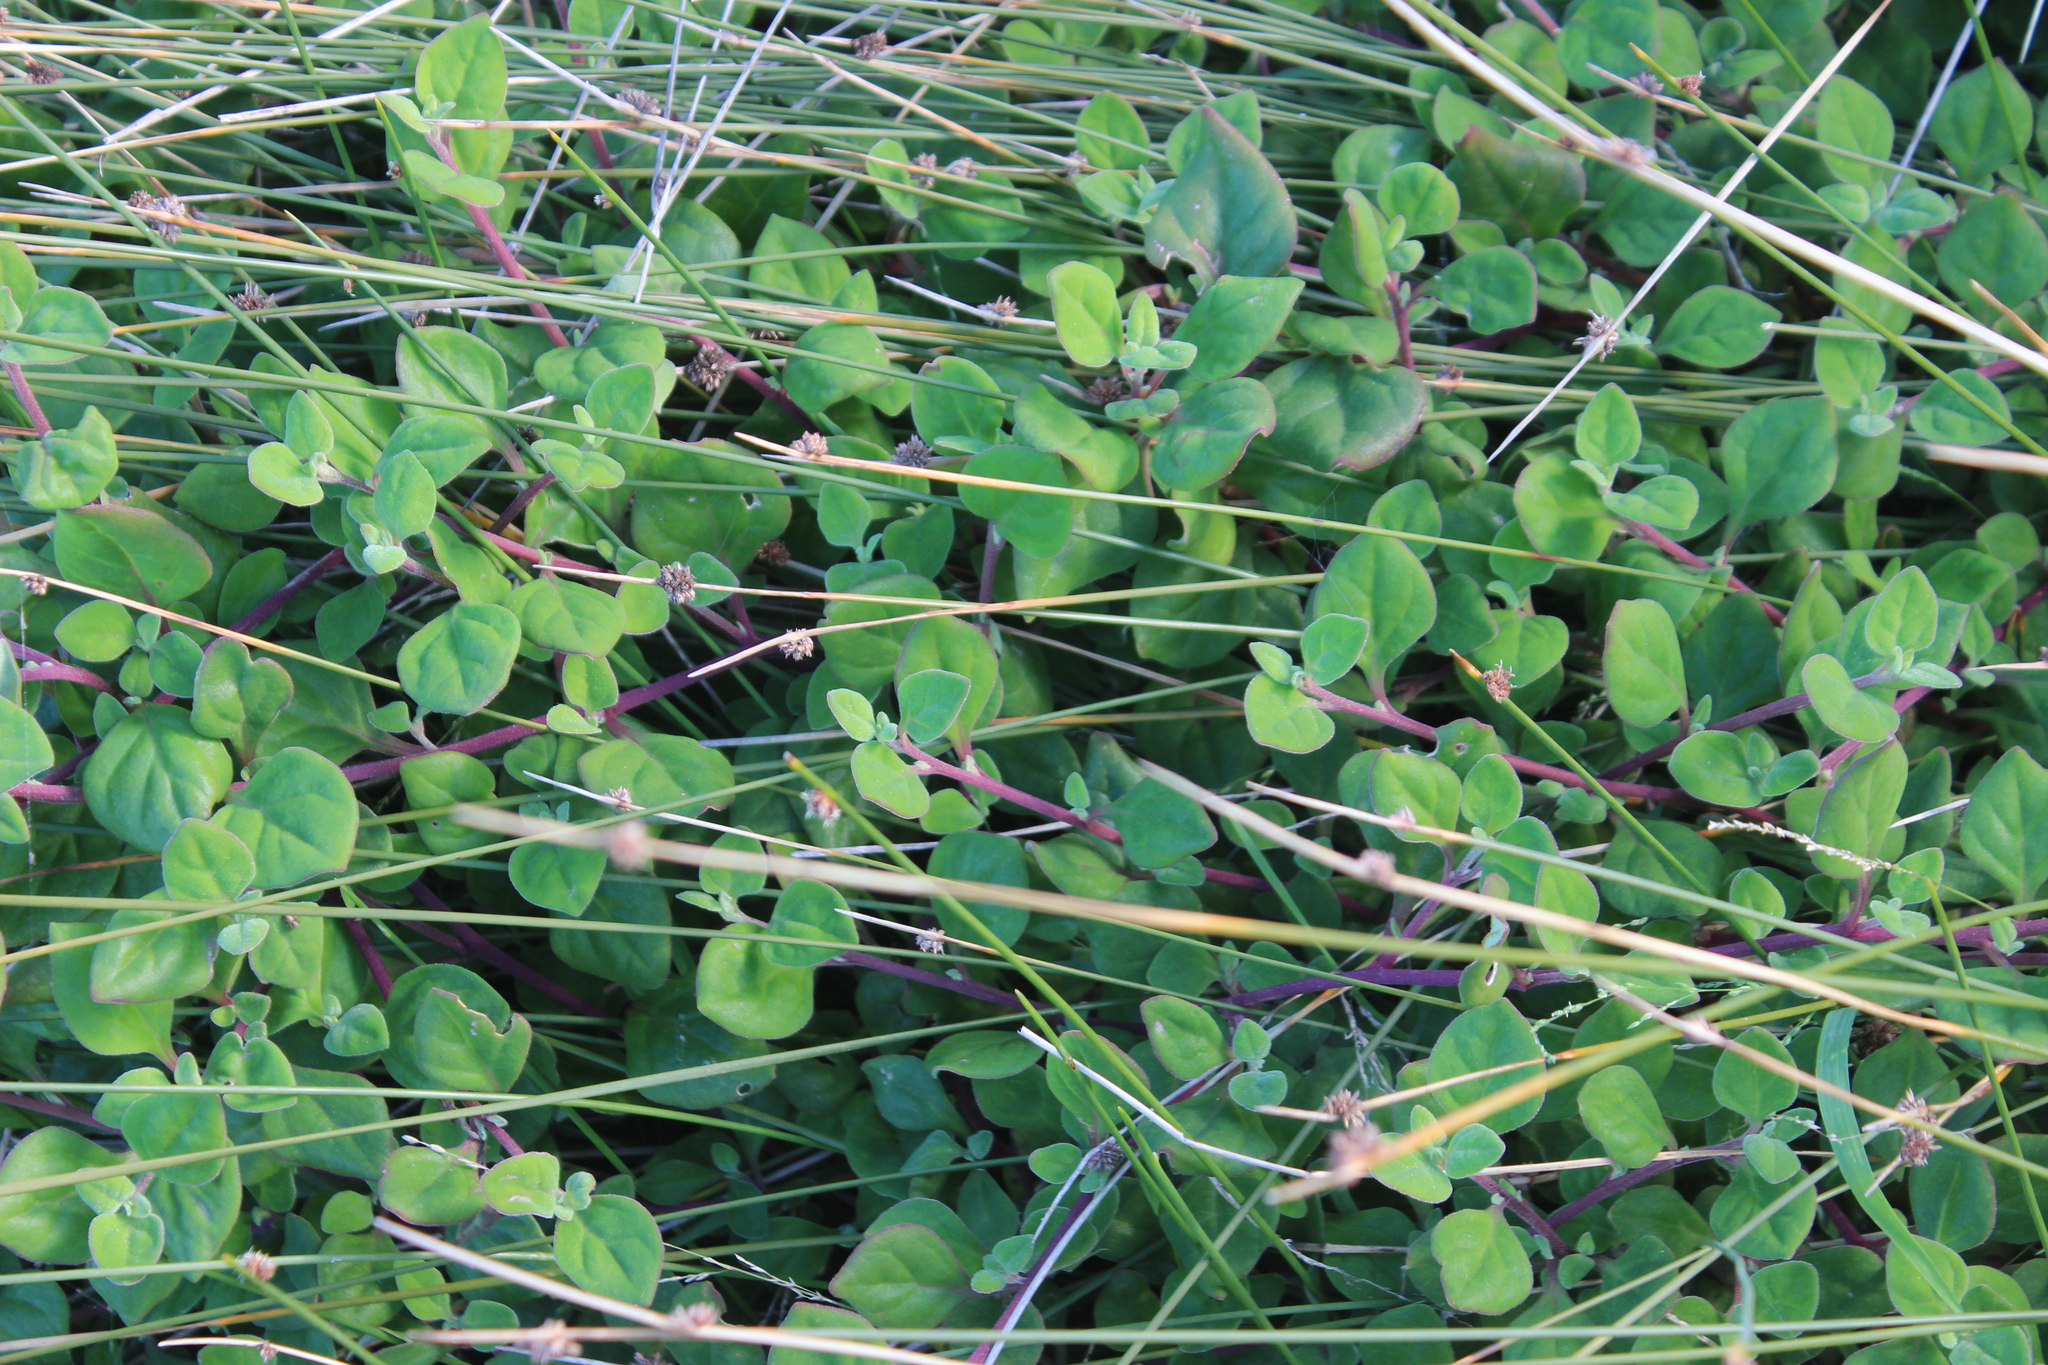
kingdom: Plantae
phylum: Tracheophyta
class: Magnoliopsida
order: Caryophyllales
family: Aizoaceae
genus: Tetragonia
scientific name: Tetragonia implexicoma
